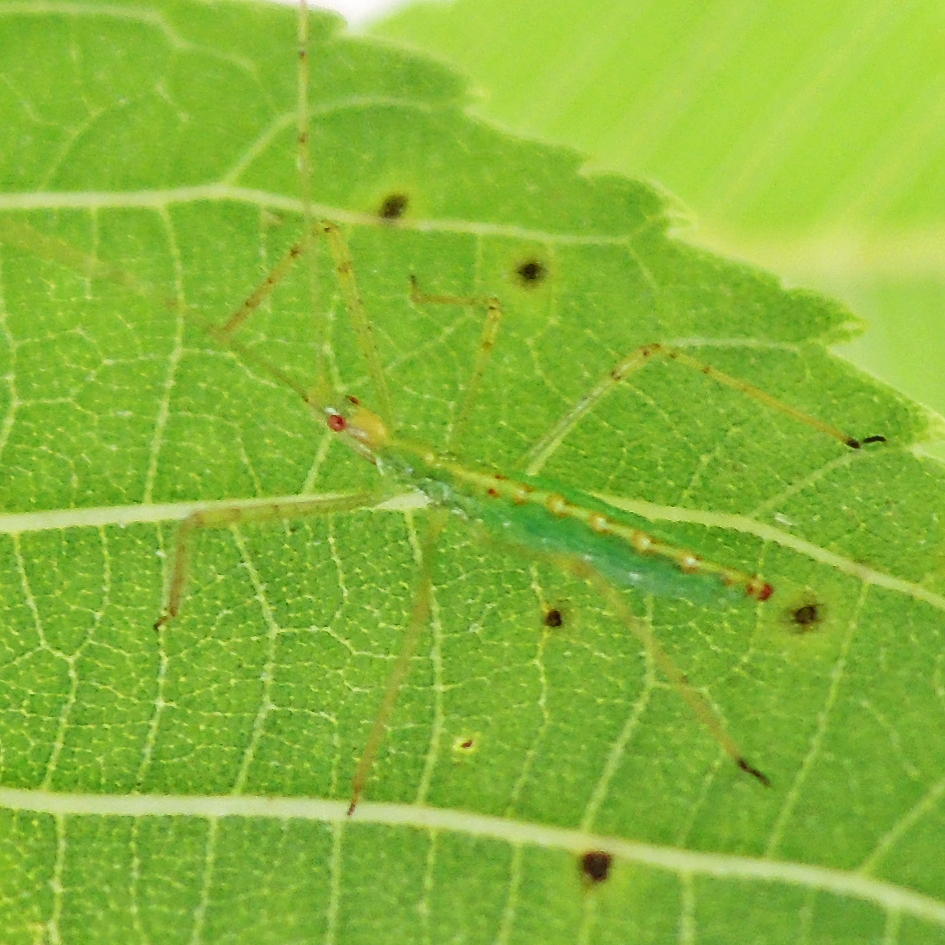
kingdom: Animalia
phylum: Arthropoda
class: Insecta
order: Hemiptera
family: Reduviidae
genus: Zelus
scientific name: Zelus luridus
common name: Pale green assassin bug
